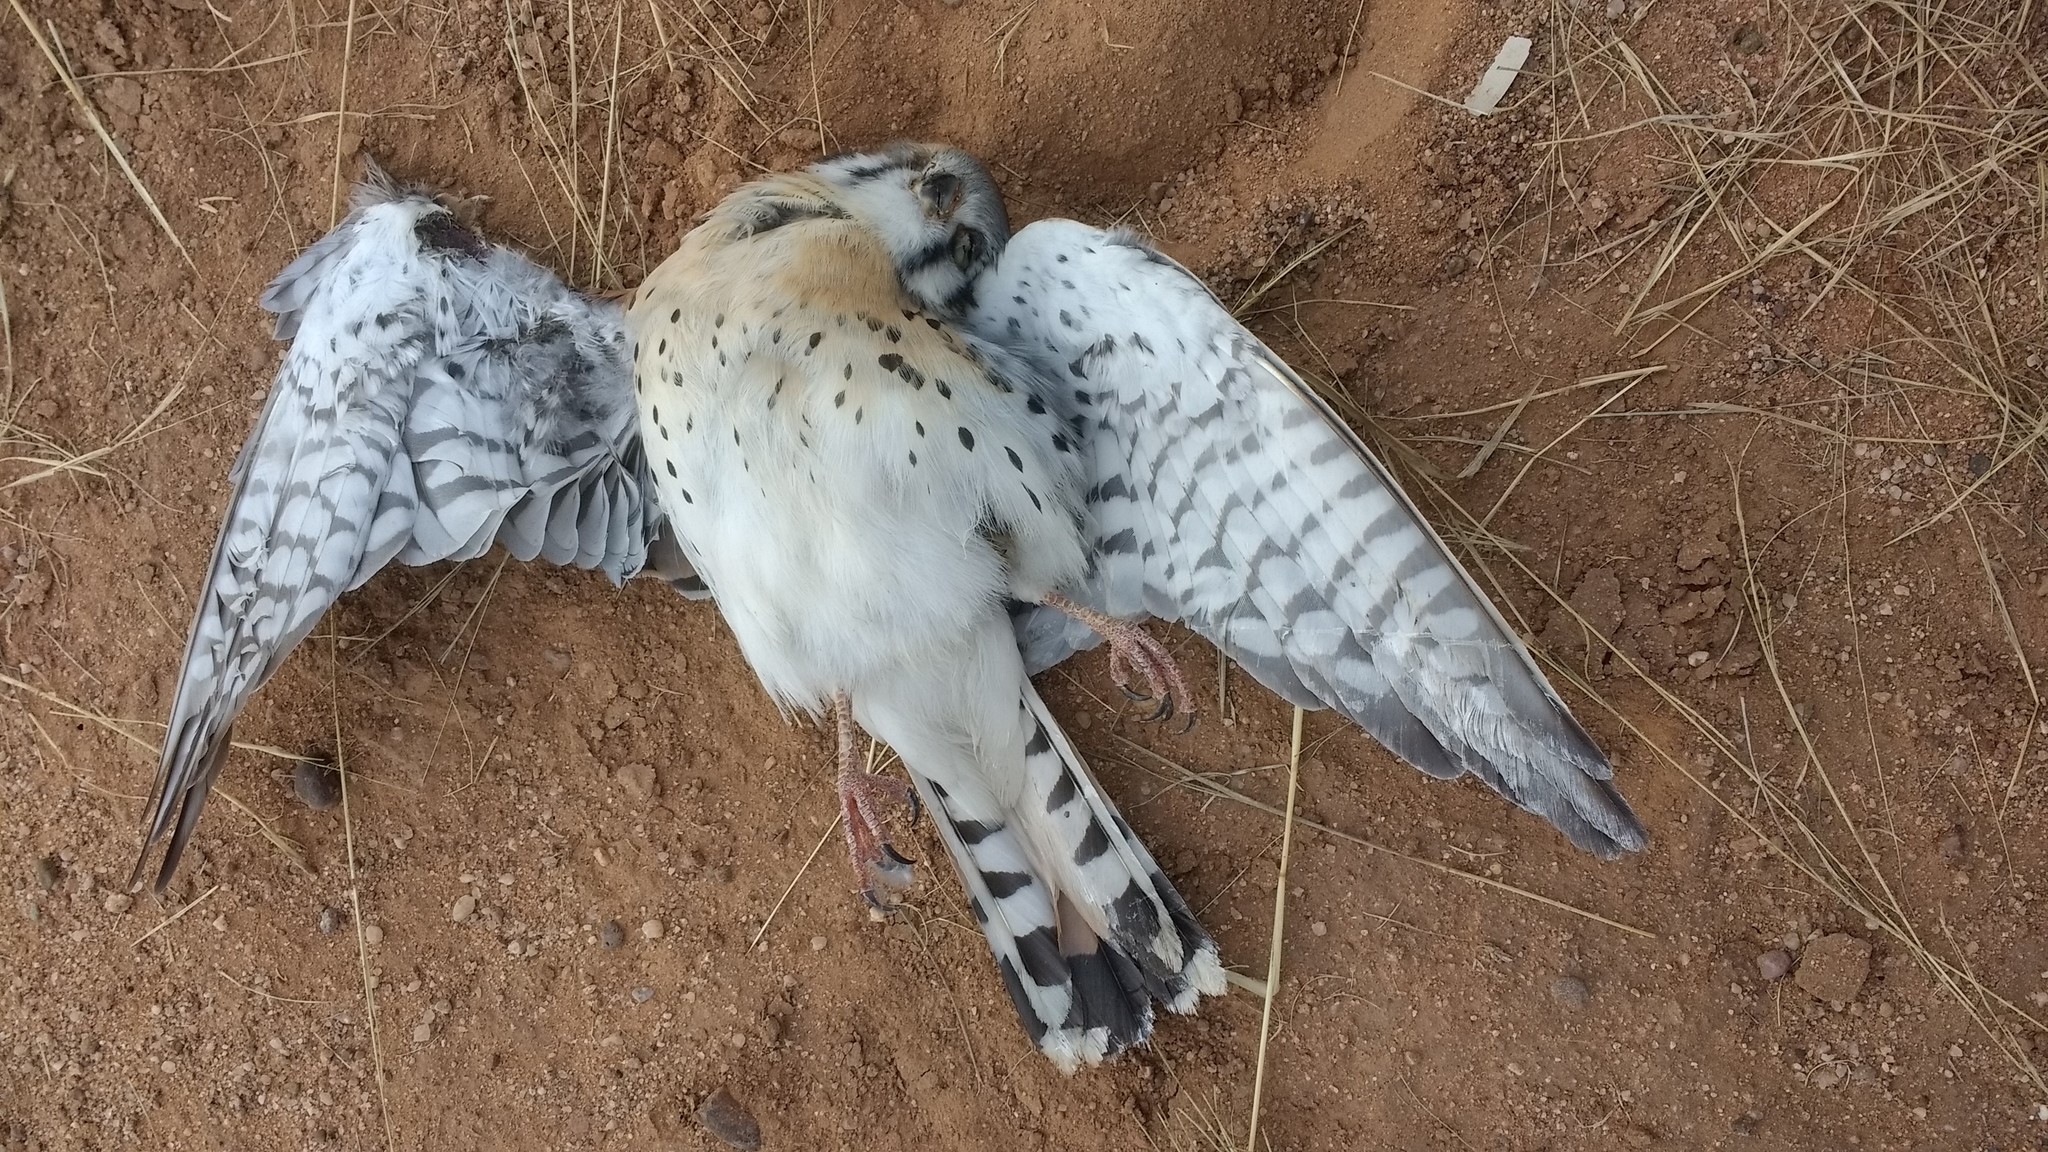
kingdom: Animalia
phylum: Chordata
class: Aves
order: Falconiformes
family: Falconidae
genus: Falco
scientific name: Falco sparverius
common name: American kestrel
